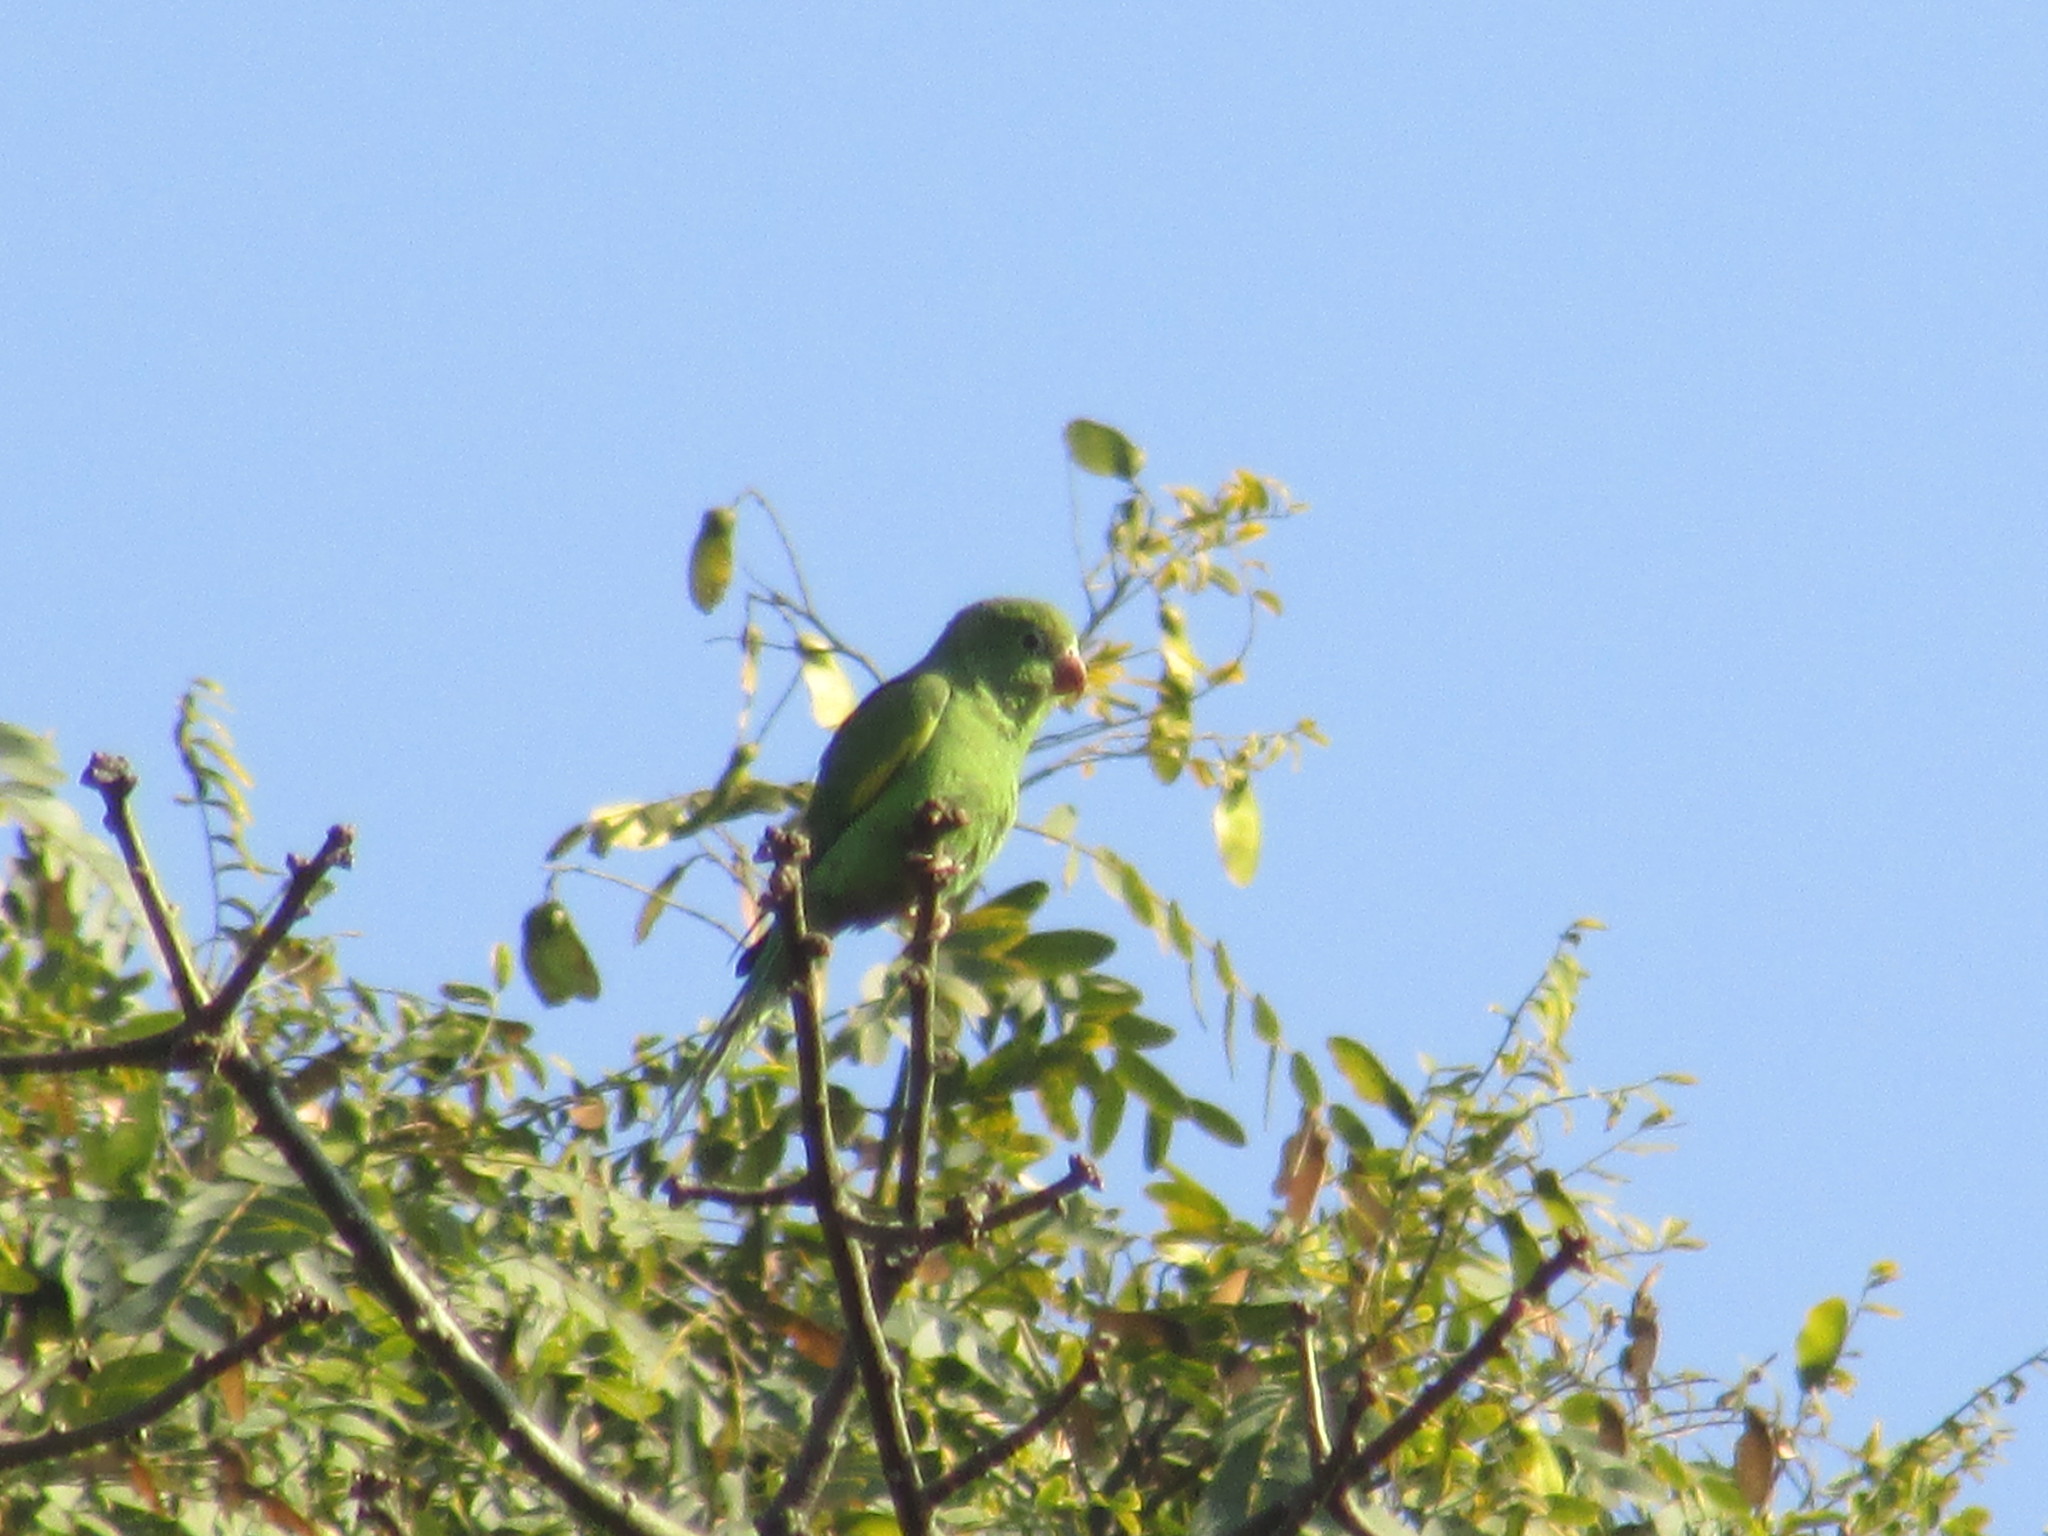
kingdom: Animalia
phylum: Chordata
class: Aves
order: Psittaciformes
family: Psittacidae
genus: Brotogeris
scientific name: Brotogeris chiriri
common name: Yellow-chevroned parakeet
